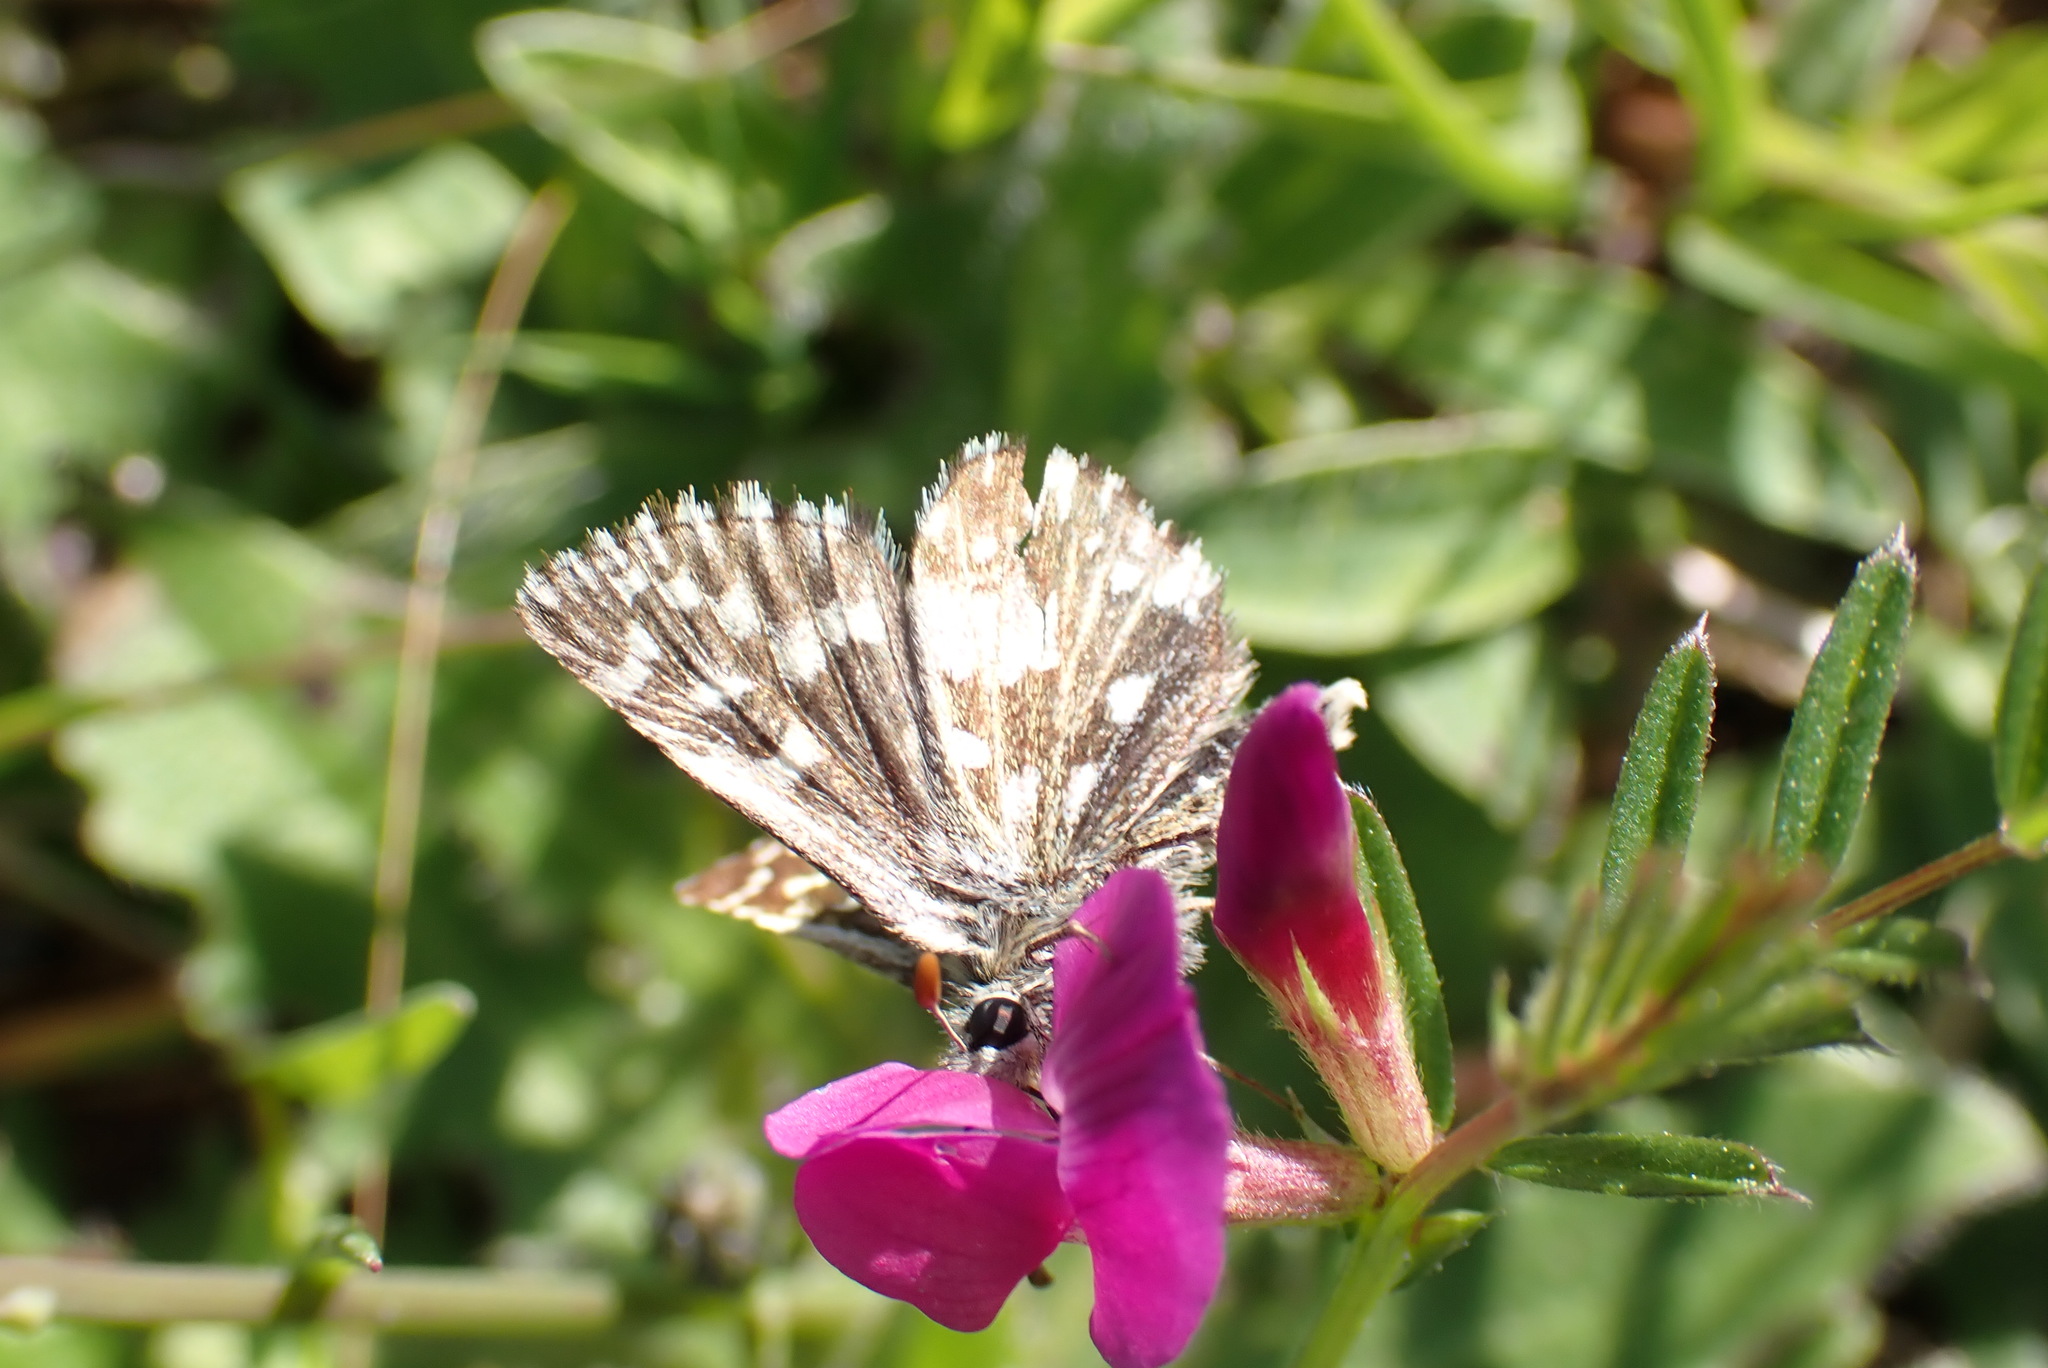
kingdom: Animalia
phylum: Arthropoda
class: Insecta
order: Lepidoptera
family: Hesperiidae
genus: Pyrgus
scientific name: Pyrgus malvae
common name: Grizzled skipper
